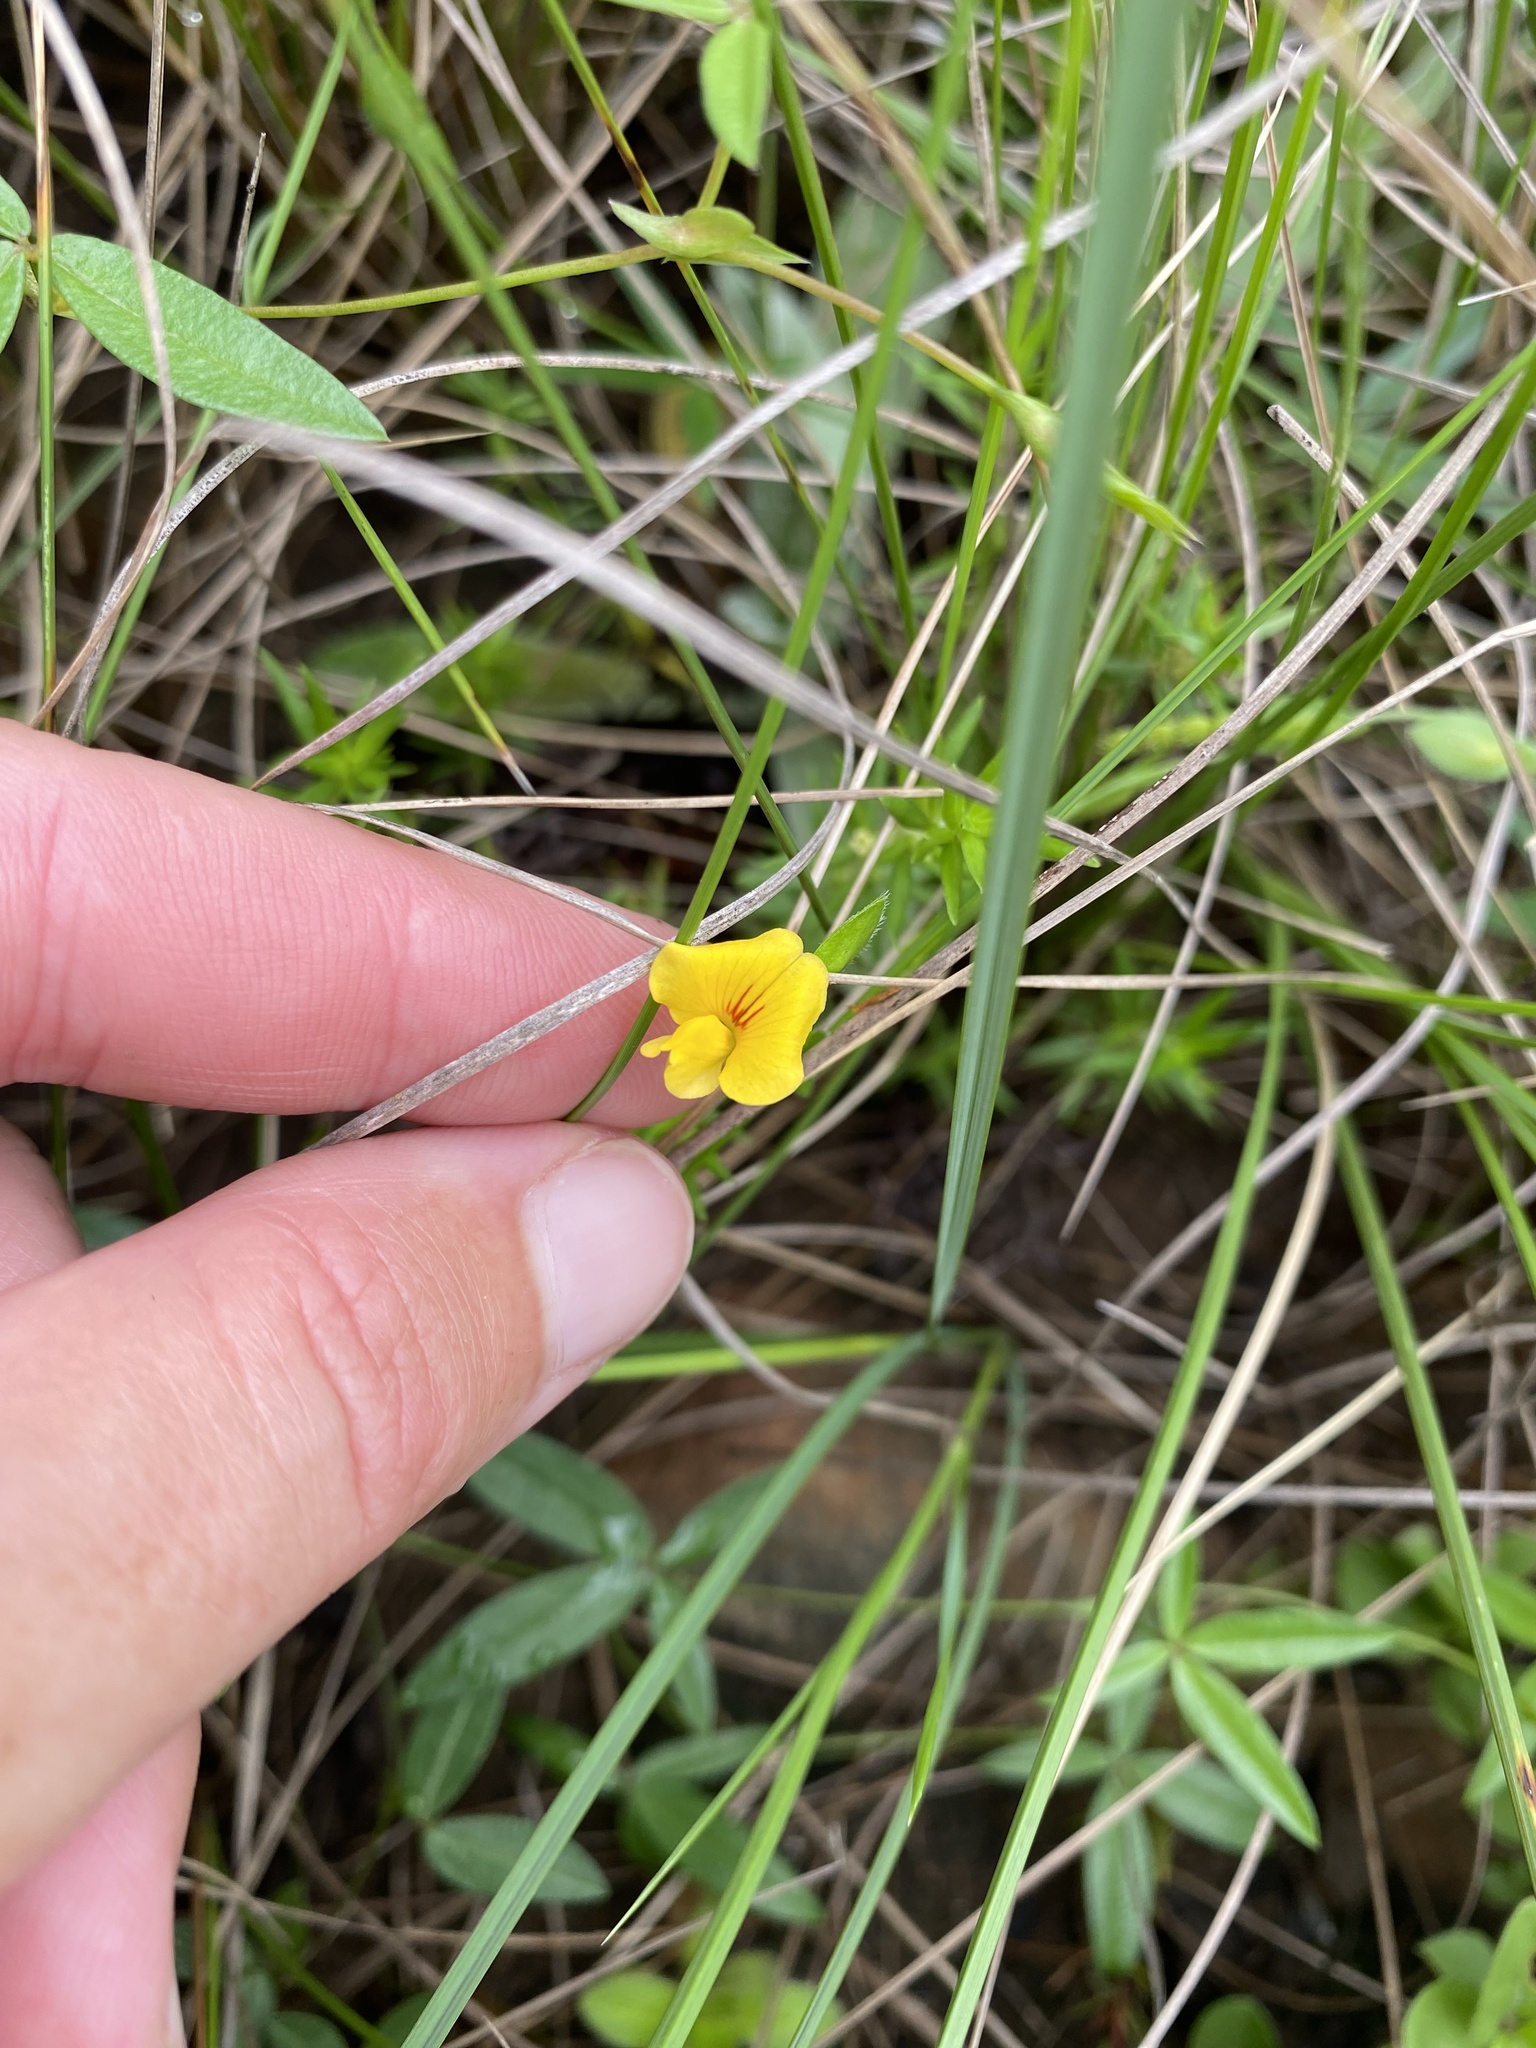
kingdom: Plantae
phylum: Tracheophyta
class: Magnoliopsida
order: Fabales
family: Fabaceae
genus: Zornia
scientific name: Zornia capensis
